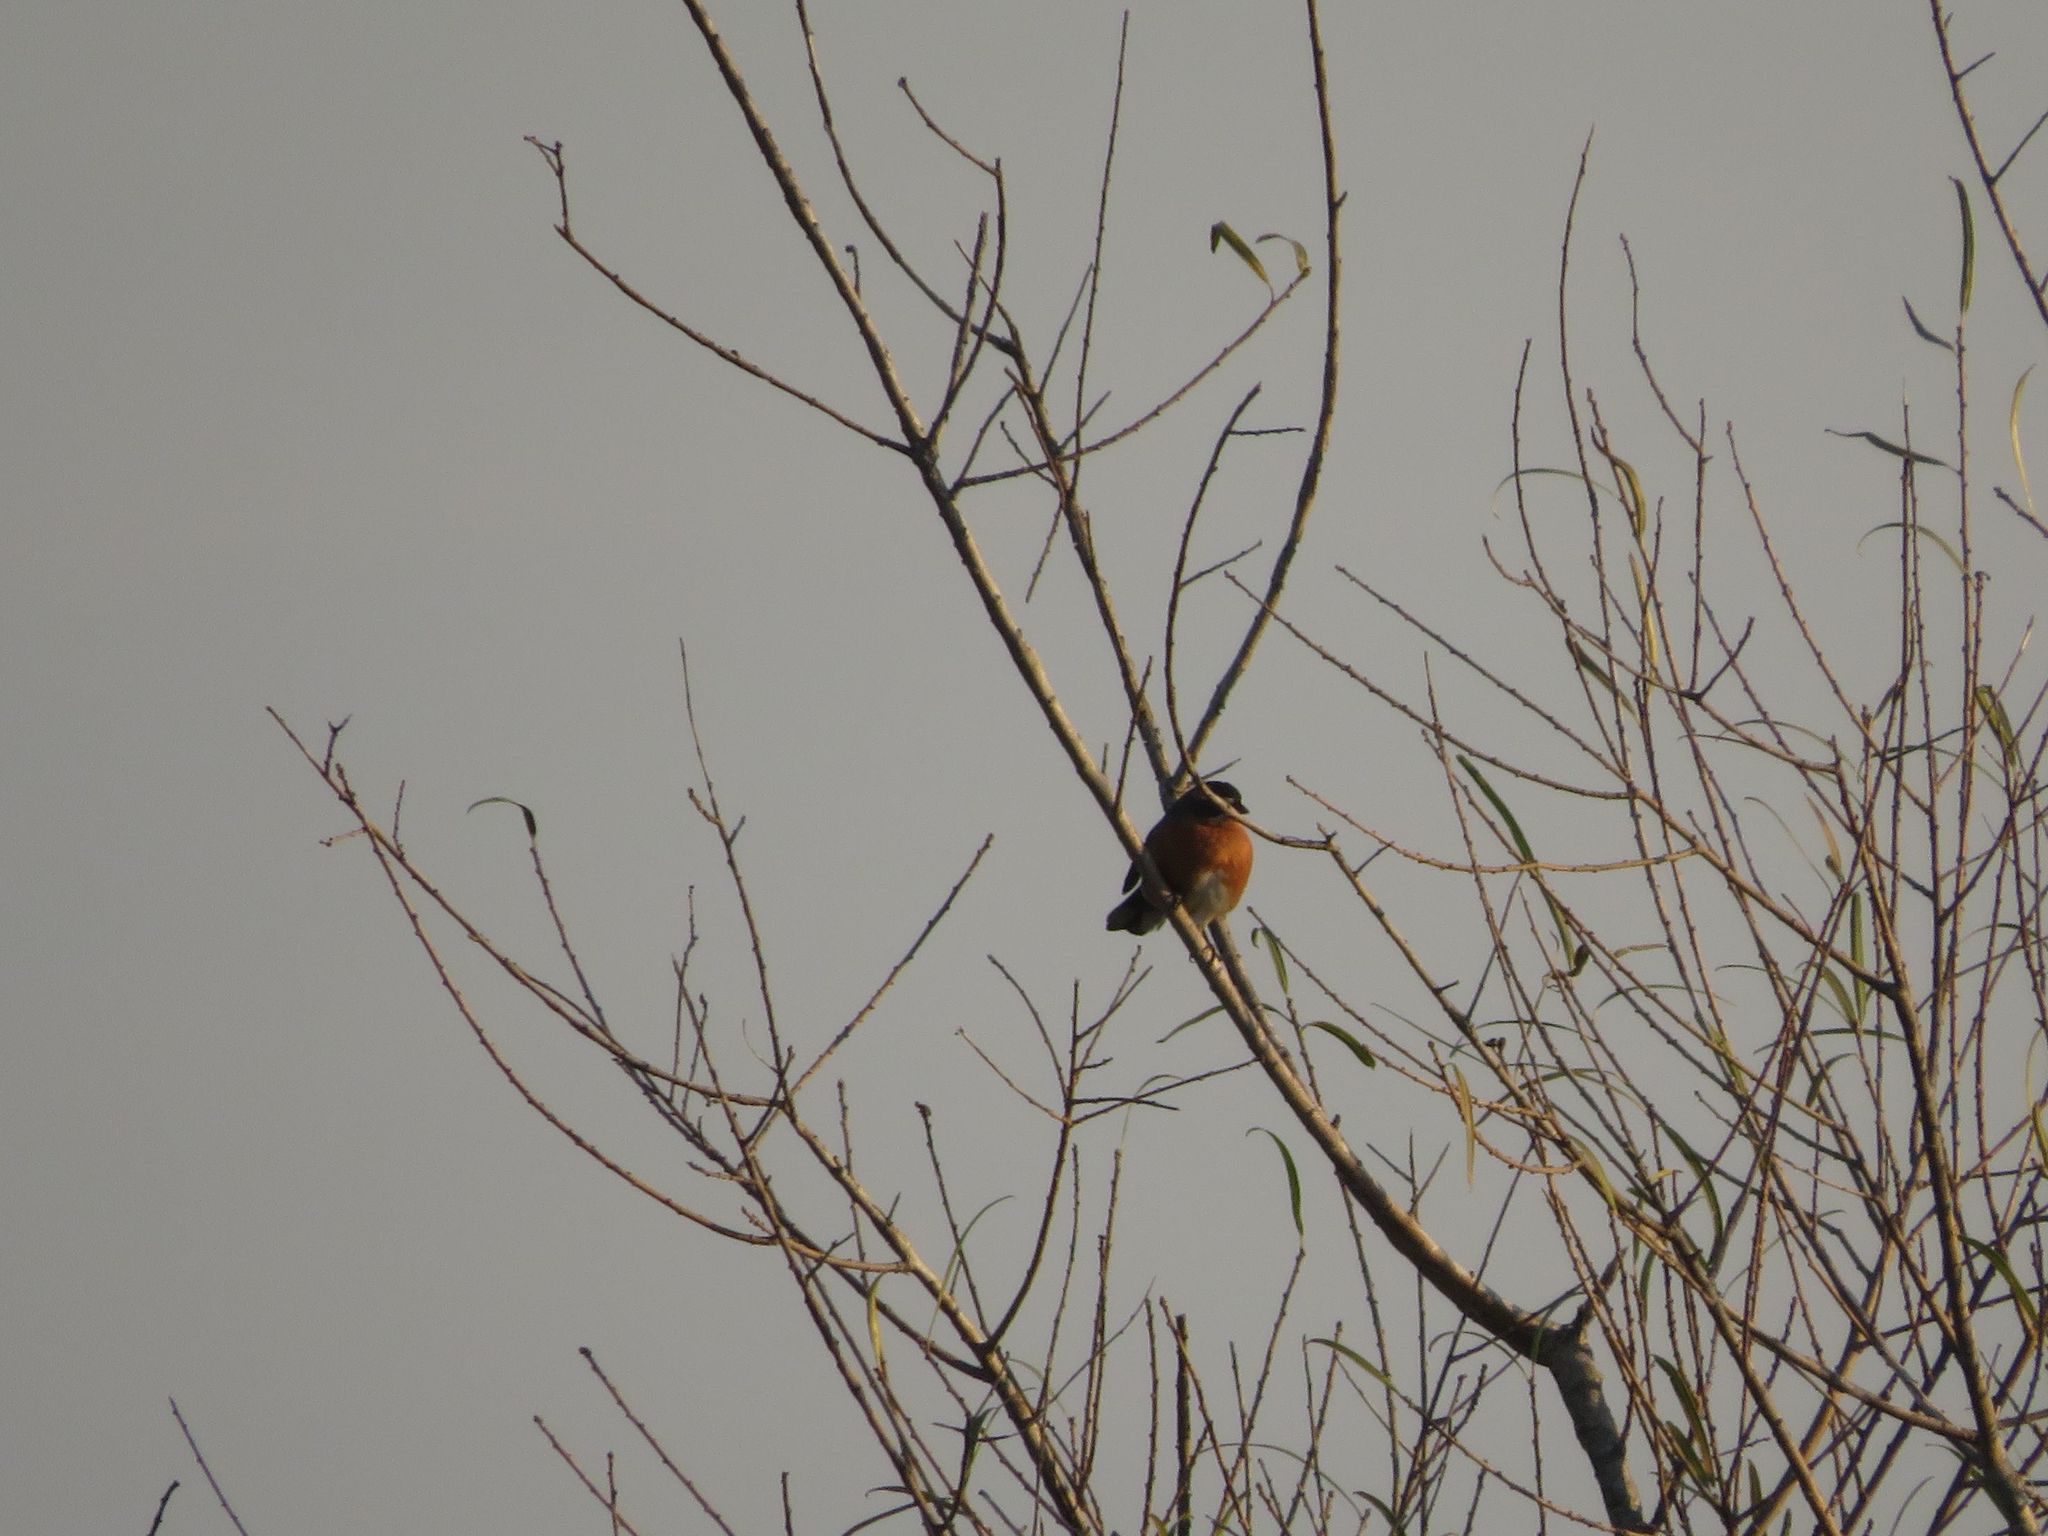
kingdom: Animalia
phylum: Chordata
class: Aves
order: Passeriformes
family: Thraupidae
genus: Poospiza
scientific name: Poospiza nigrorufa
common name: Black-and-rufous warbling finch
